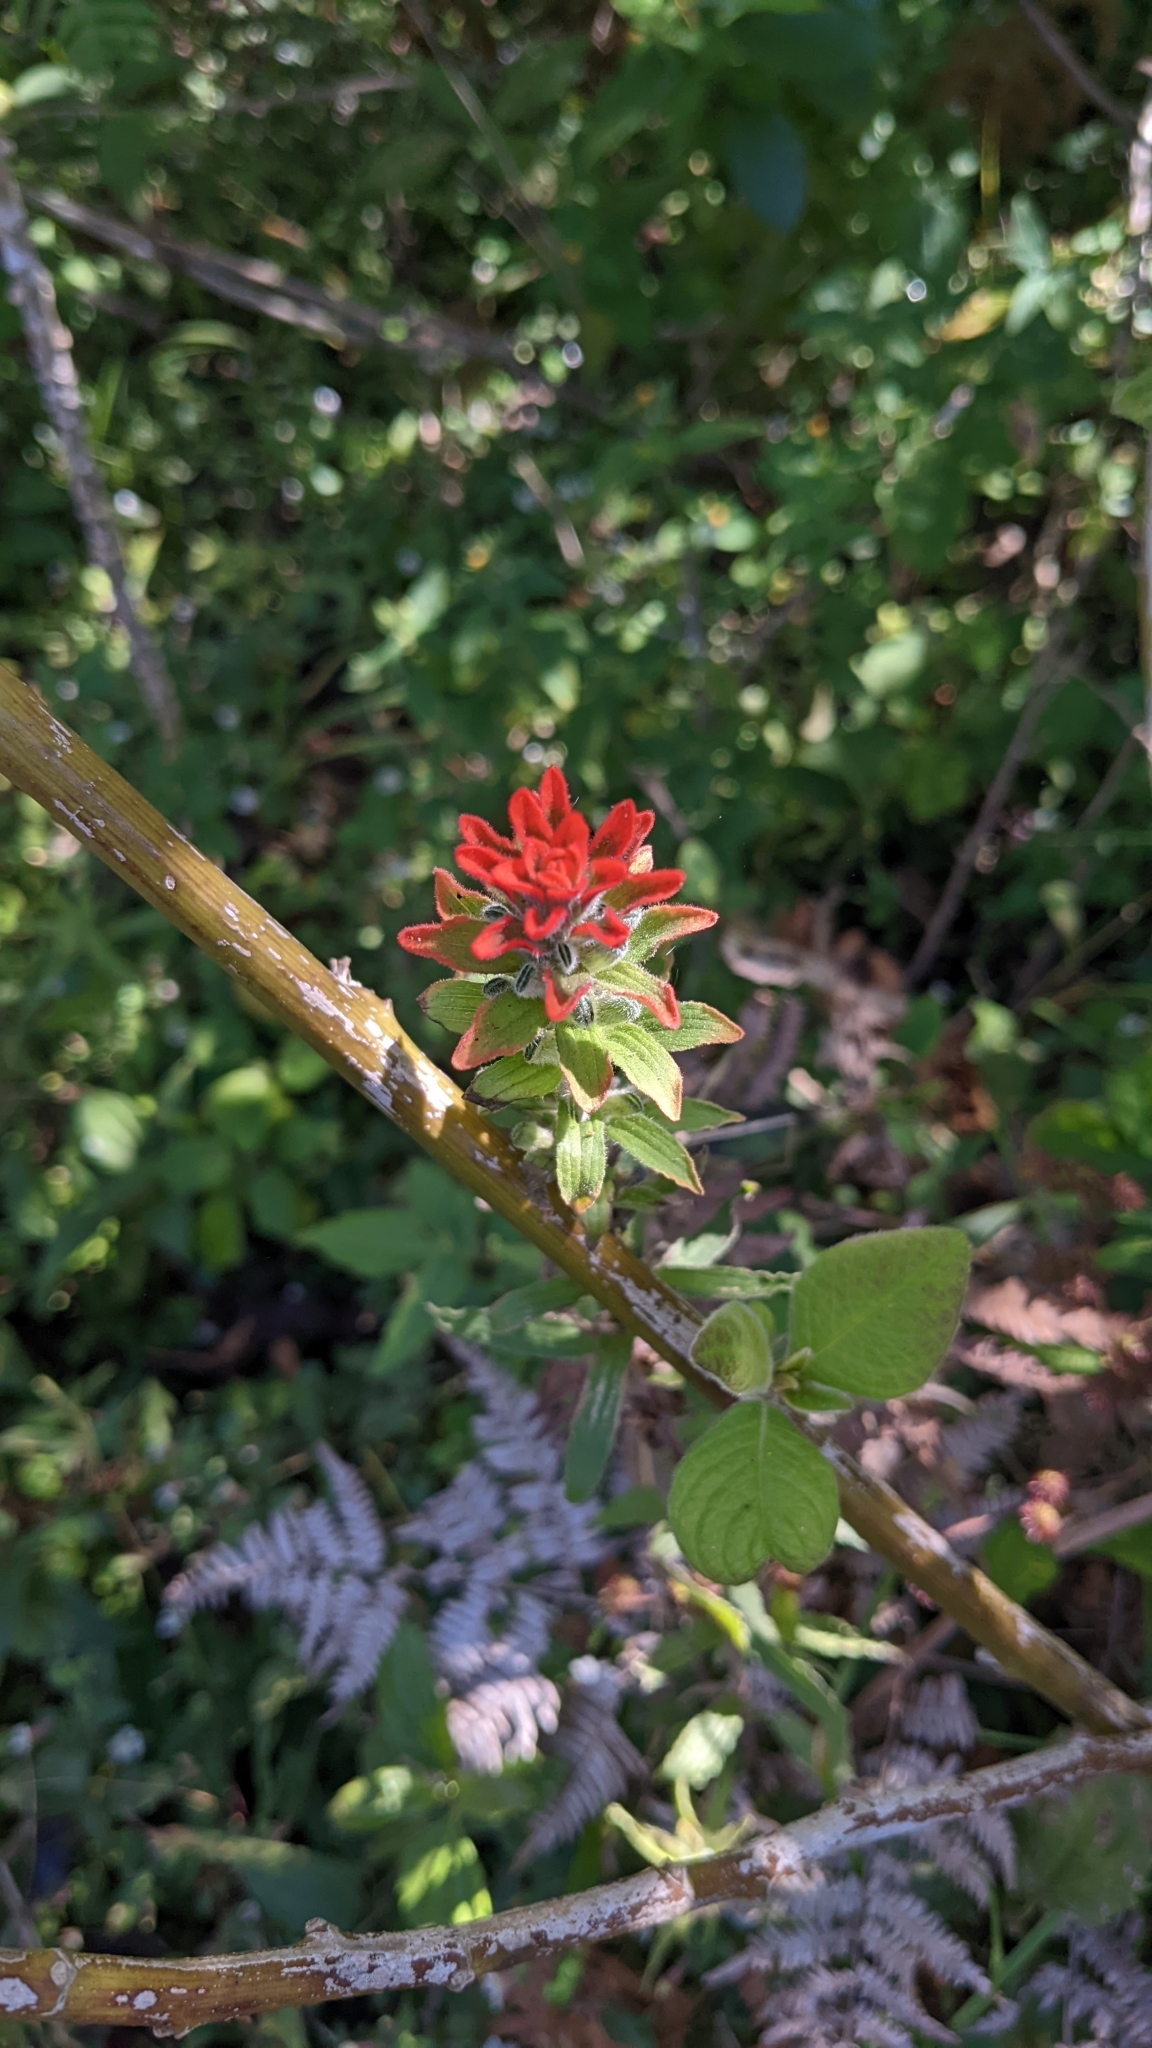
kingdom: Plantae
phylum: Tracheophyta
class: Magnoliopsida
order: Lamiales
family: Orobanchaceae
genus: Castilleja
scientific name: Castilleja arvensis
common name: Indian paintbrush
